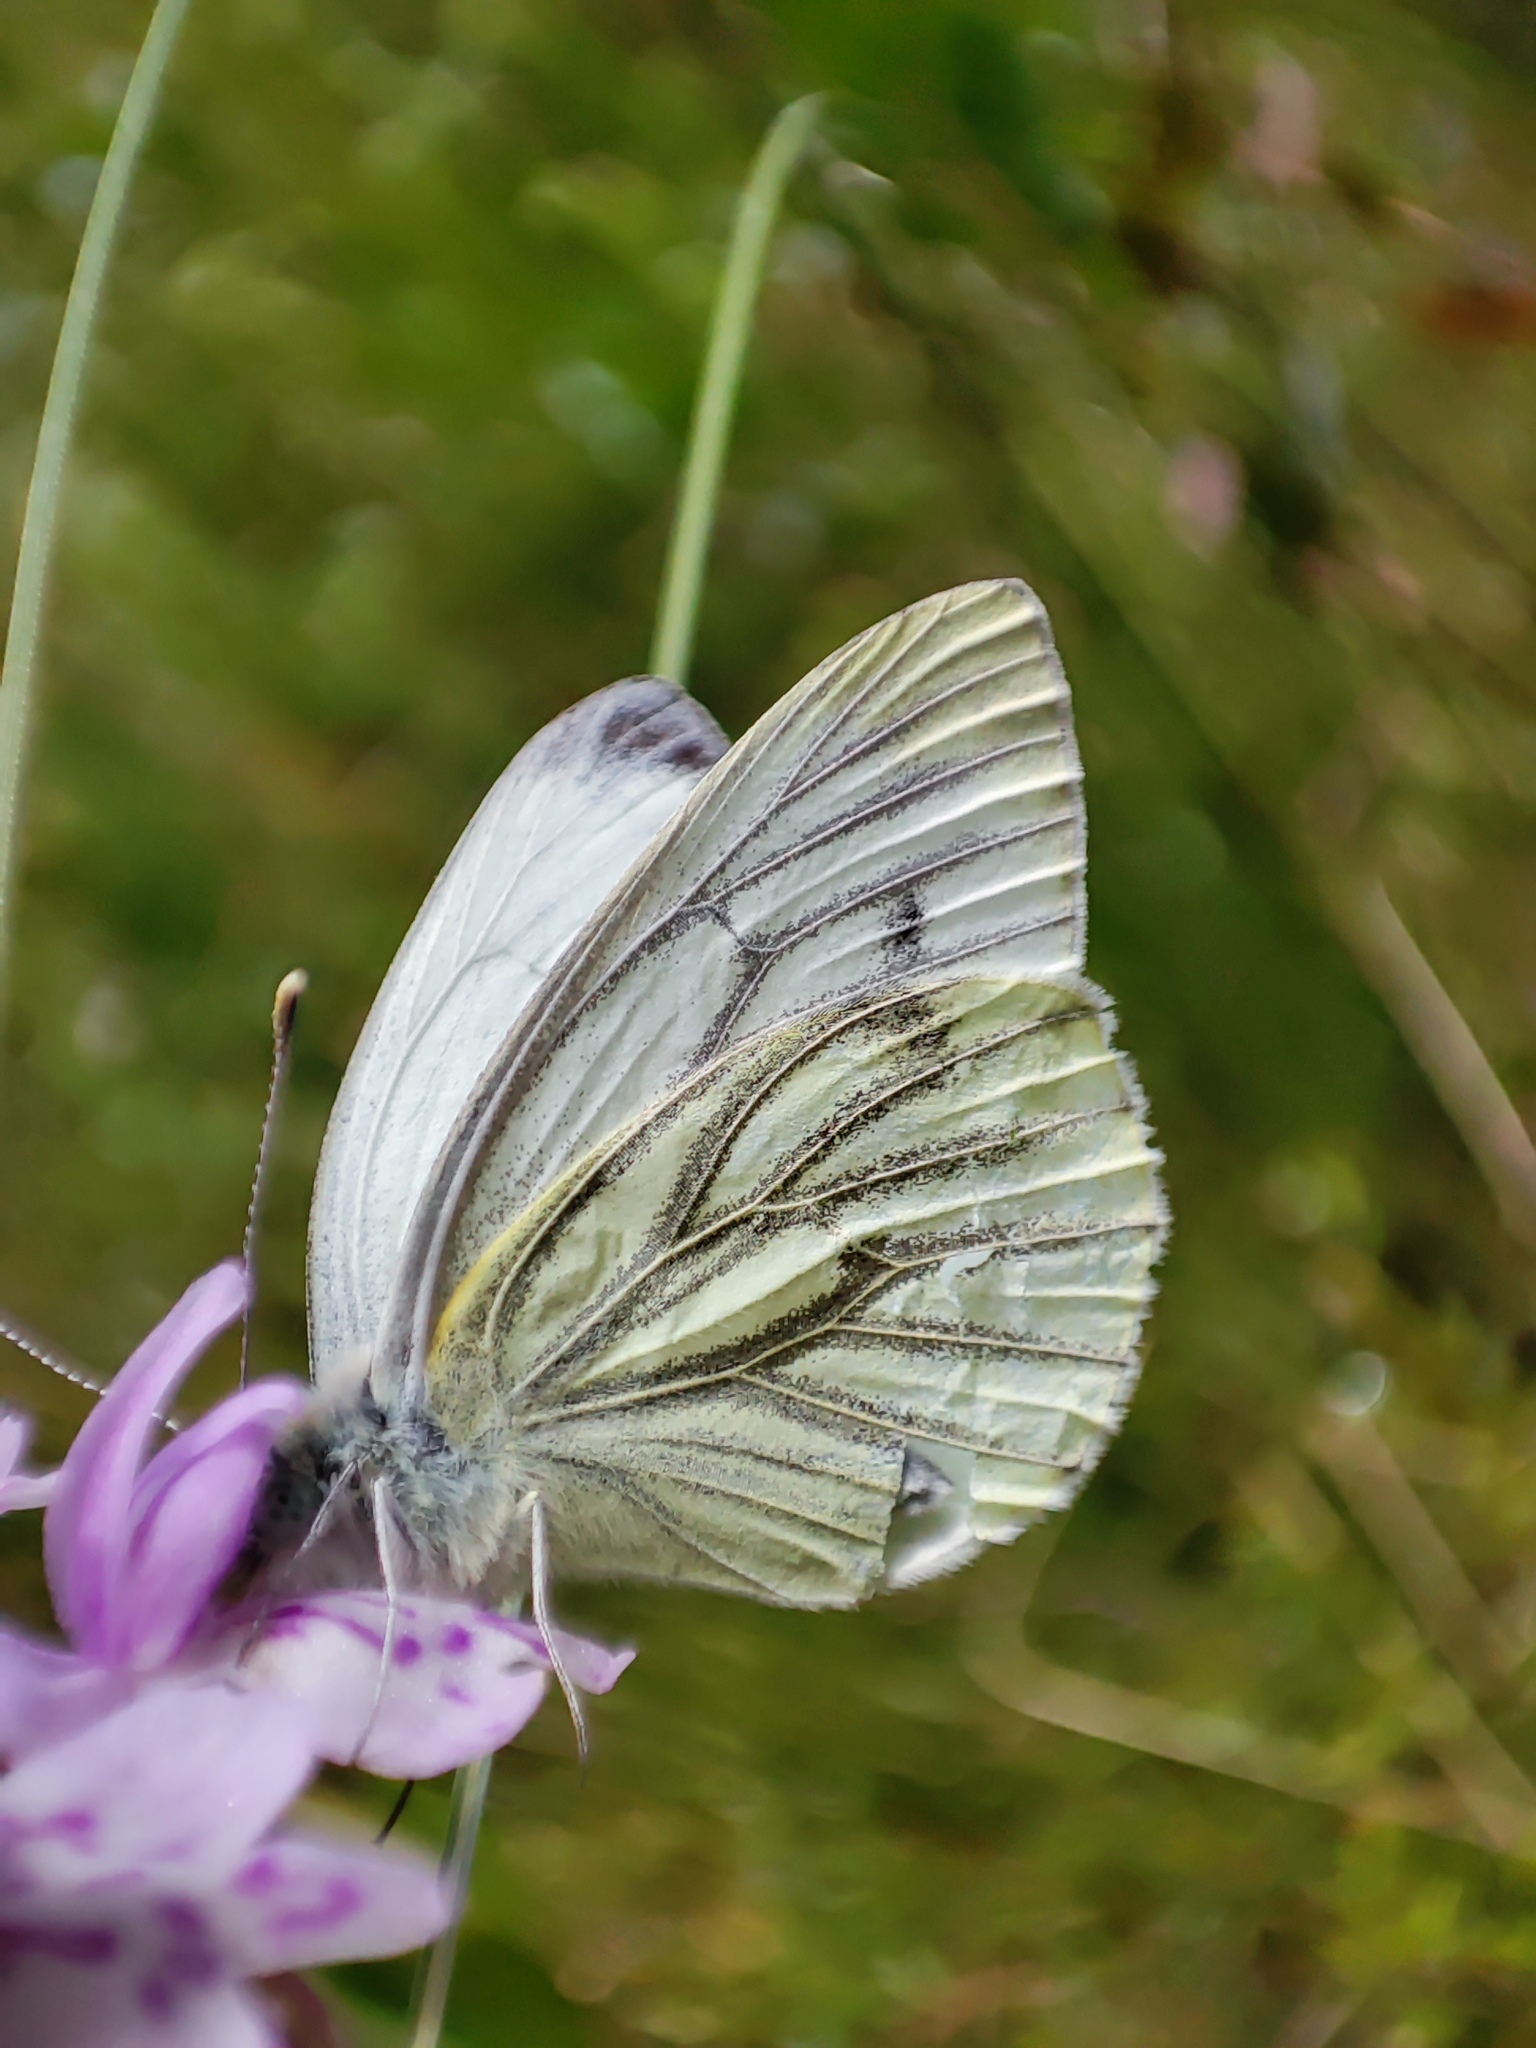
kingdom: Animalia
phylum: Arthropoda
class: Insecta
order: Lepidoptera
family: Pieridae
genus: Pieris
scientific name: Pieris napi
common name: Green-veined white
